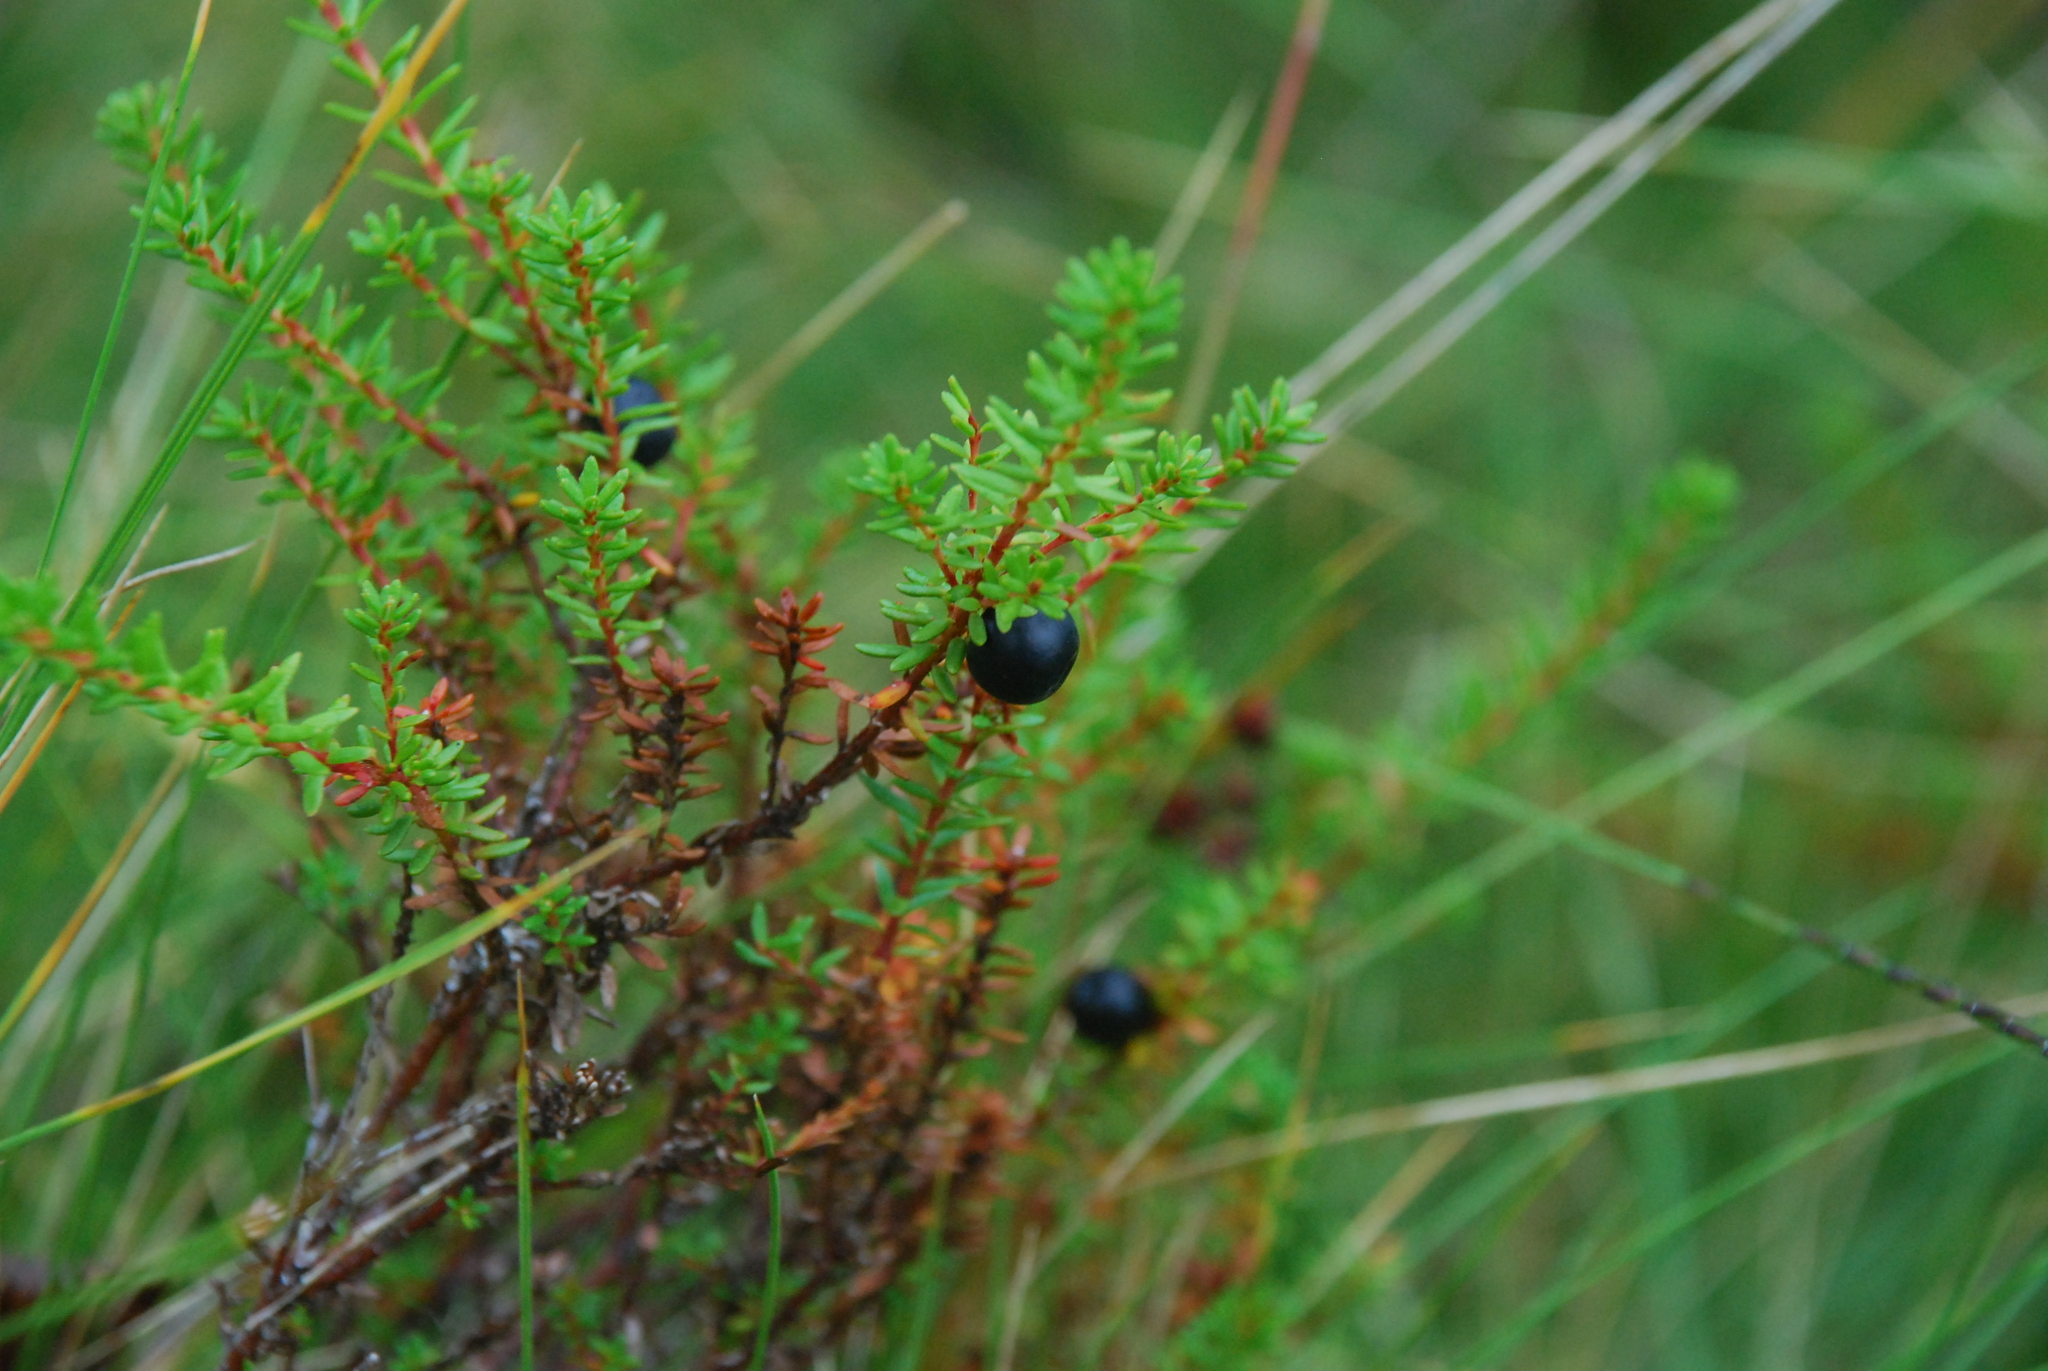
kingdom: Plantae
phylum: Tracheophyta
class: Magnoliopsida
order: Ericales
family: Ericaceae
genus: Empetrum
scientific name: Empetrum nigrum
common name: Black crowberry
